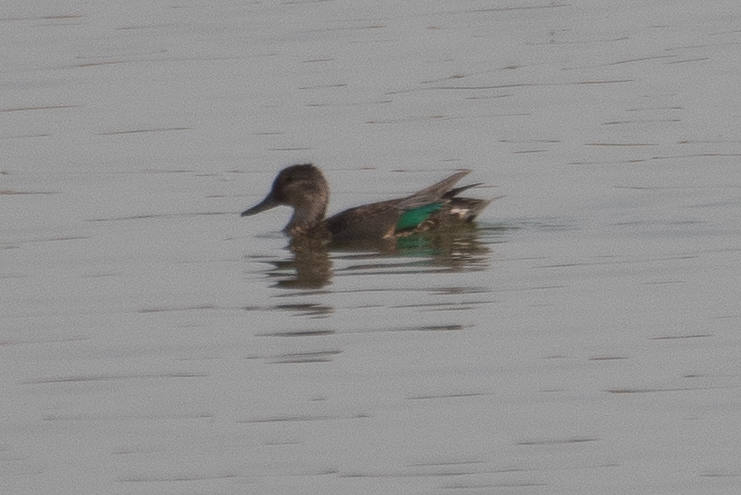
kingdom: Animalia
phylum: Chordata
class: Aves
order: Anseriformes
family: Anatidae
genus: Anas
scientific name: Anas crecca
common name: Eurasian teal
